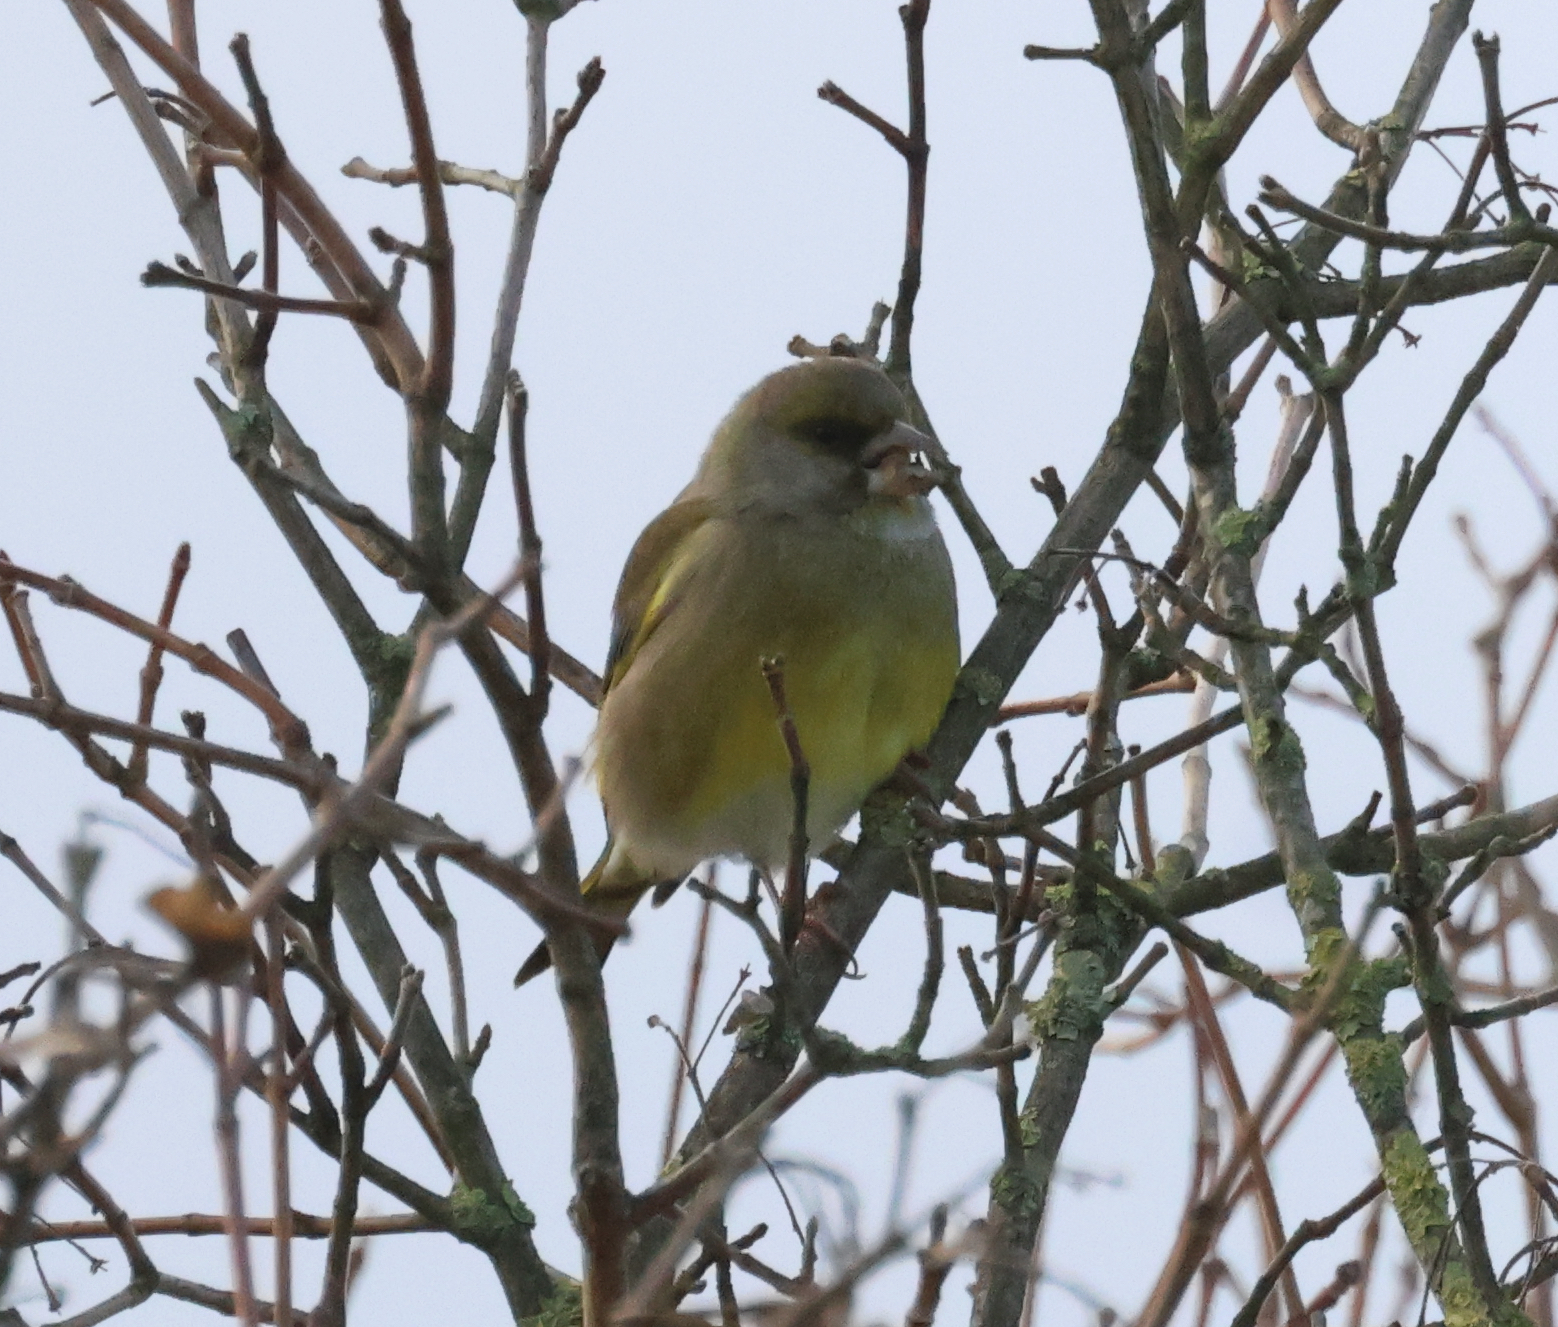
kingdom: Plantae
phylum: Tracheophyta
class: Liliopsida
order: Poales
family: Poaceae
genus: Chloris
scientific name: Chloris chloris
